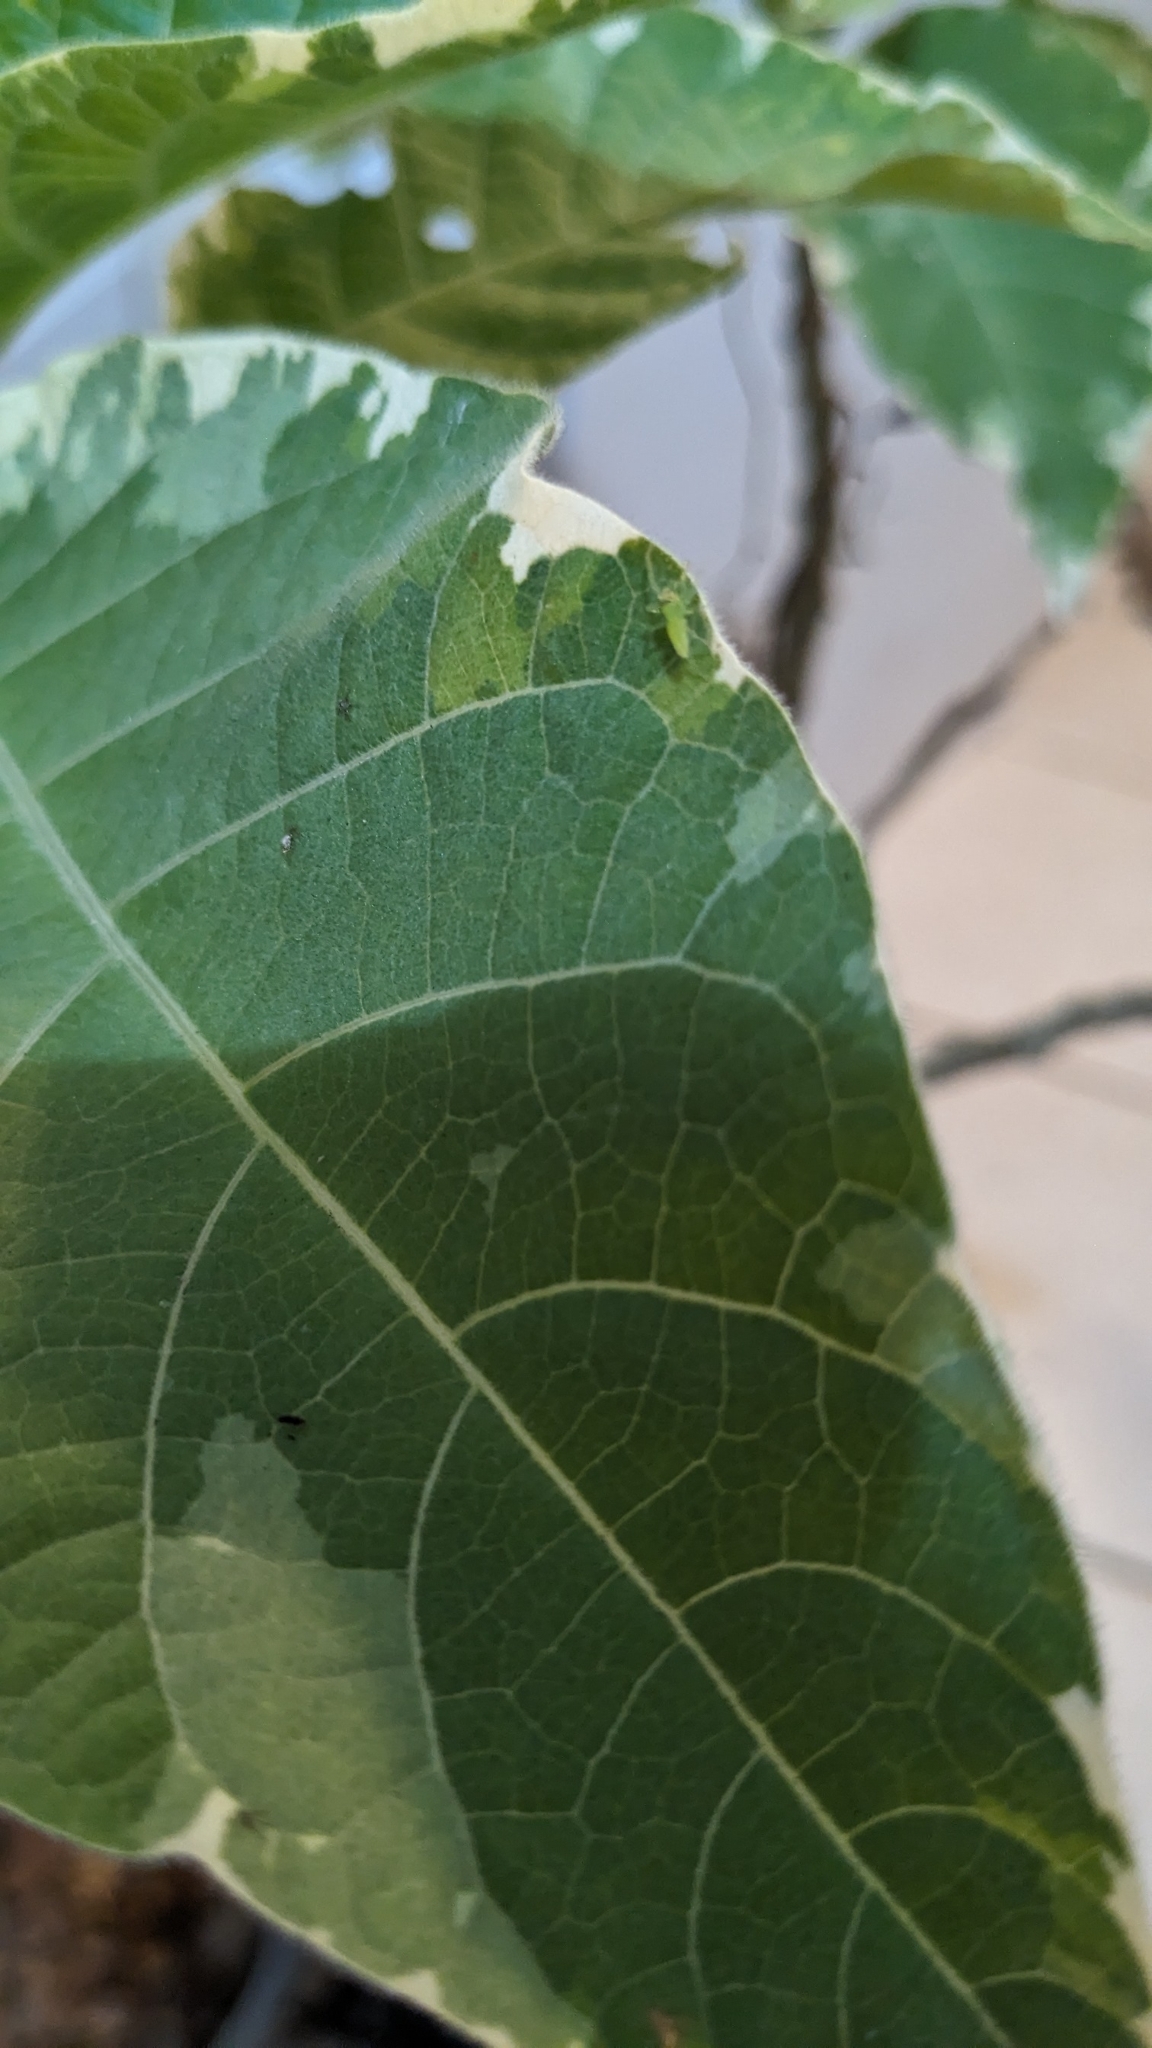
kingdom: Animalia
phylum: Arthropoda
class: Arachnida
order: Araneae
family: Salticidae
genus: Lyssomanes
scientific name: Lyssomanes viridis
